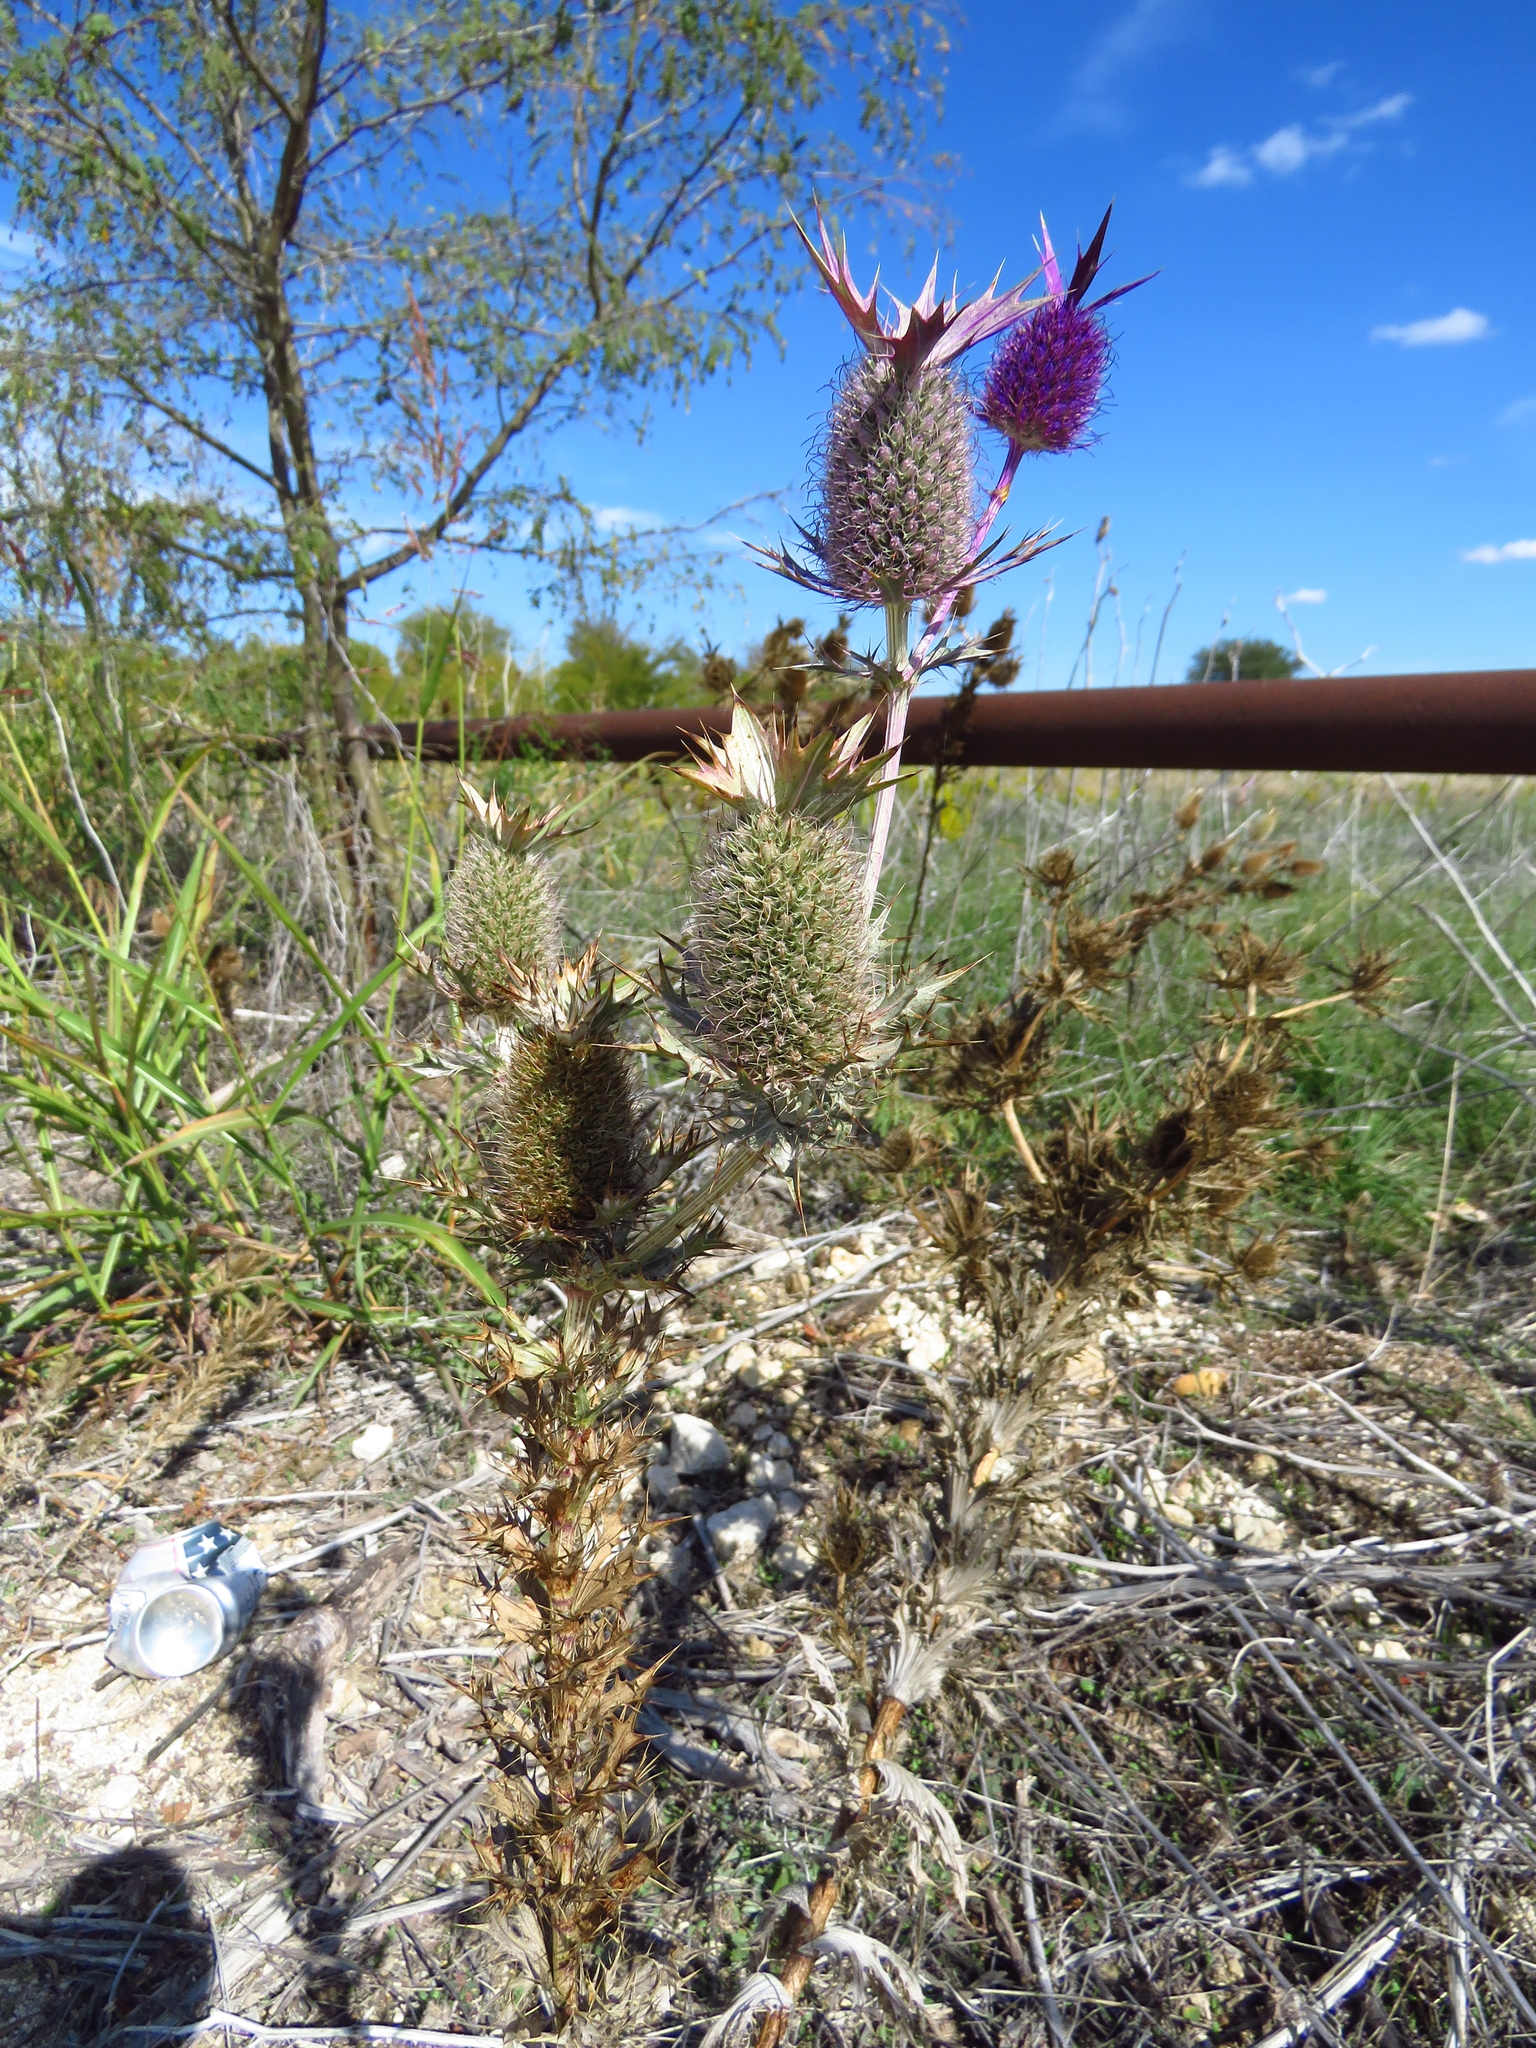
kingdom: Plantae
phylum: Tracheophyta
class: Magnoliopsida
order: Apiales
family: Apiaceae
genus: Eryngium
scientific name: Eryngium leavenworthii
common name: Leavenworth's eryngo
